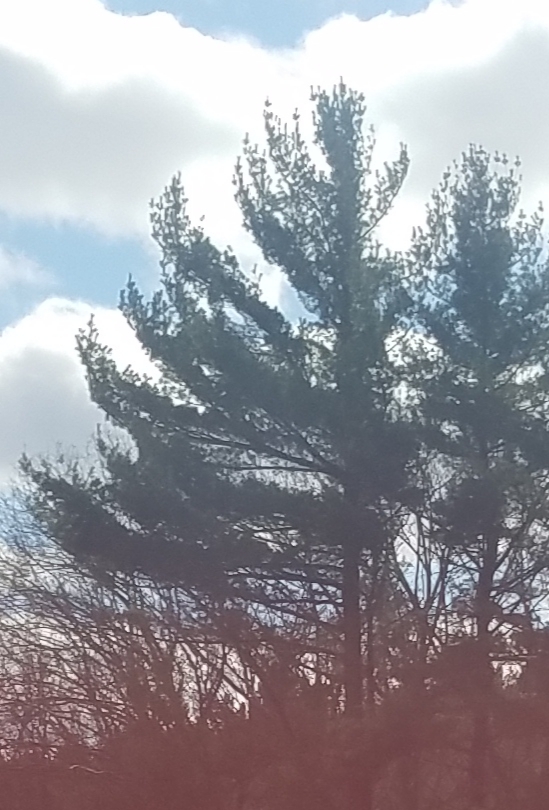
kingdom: Plantae
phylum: Tracheophyta
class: Pinopsida
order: Pinales
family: Pinaceae
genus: Pinus
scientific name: Pinus strobus
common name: Weymouth pine
